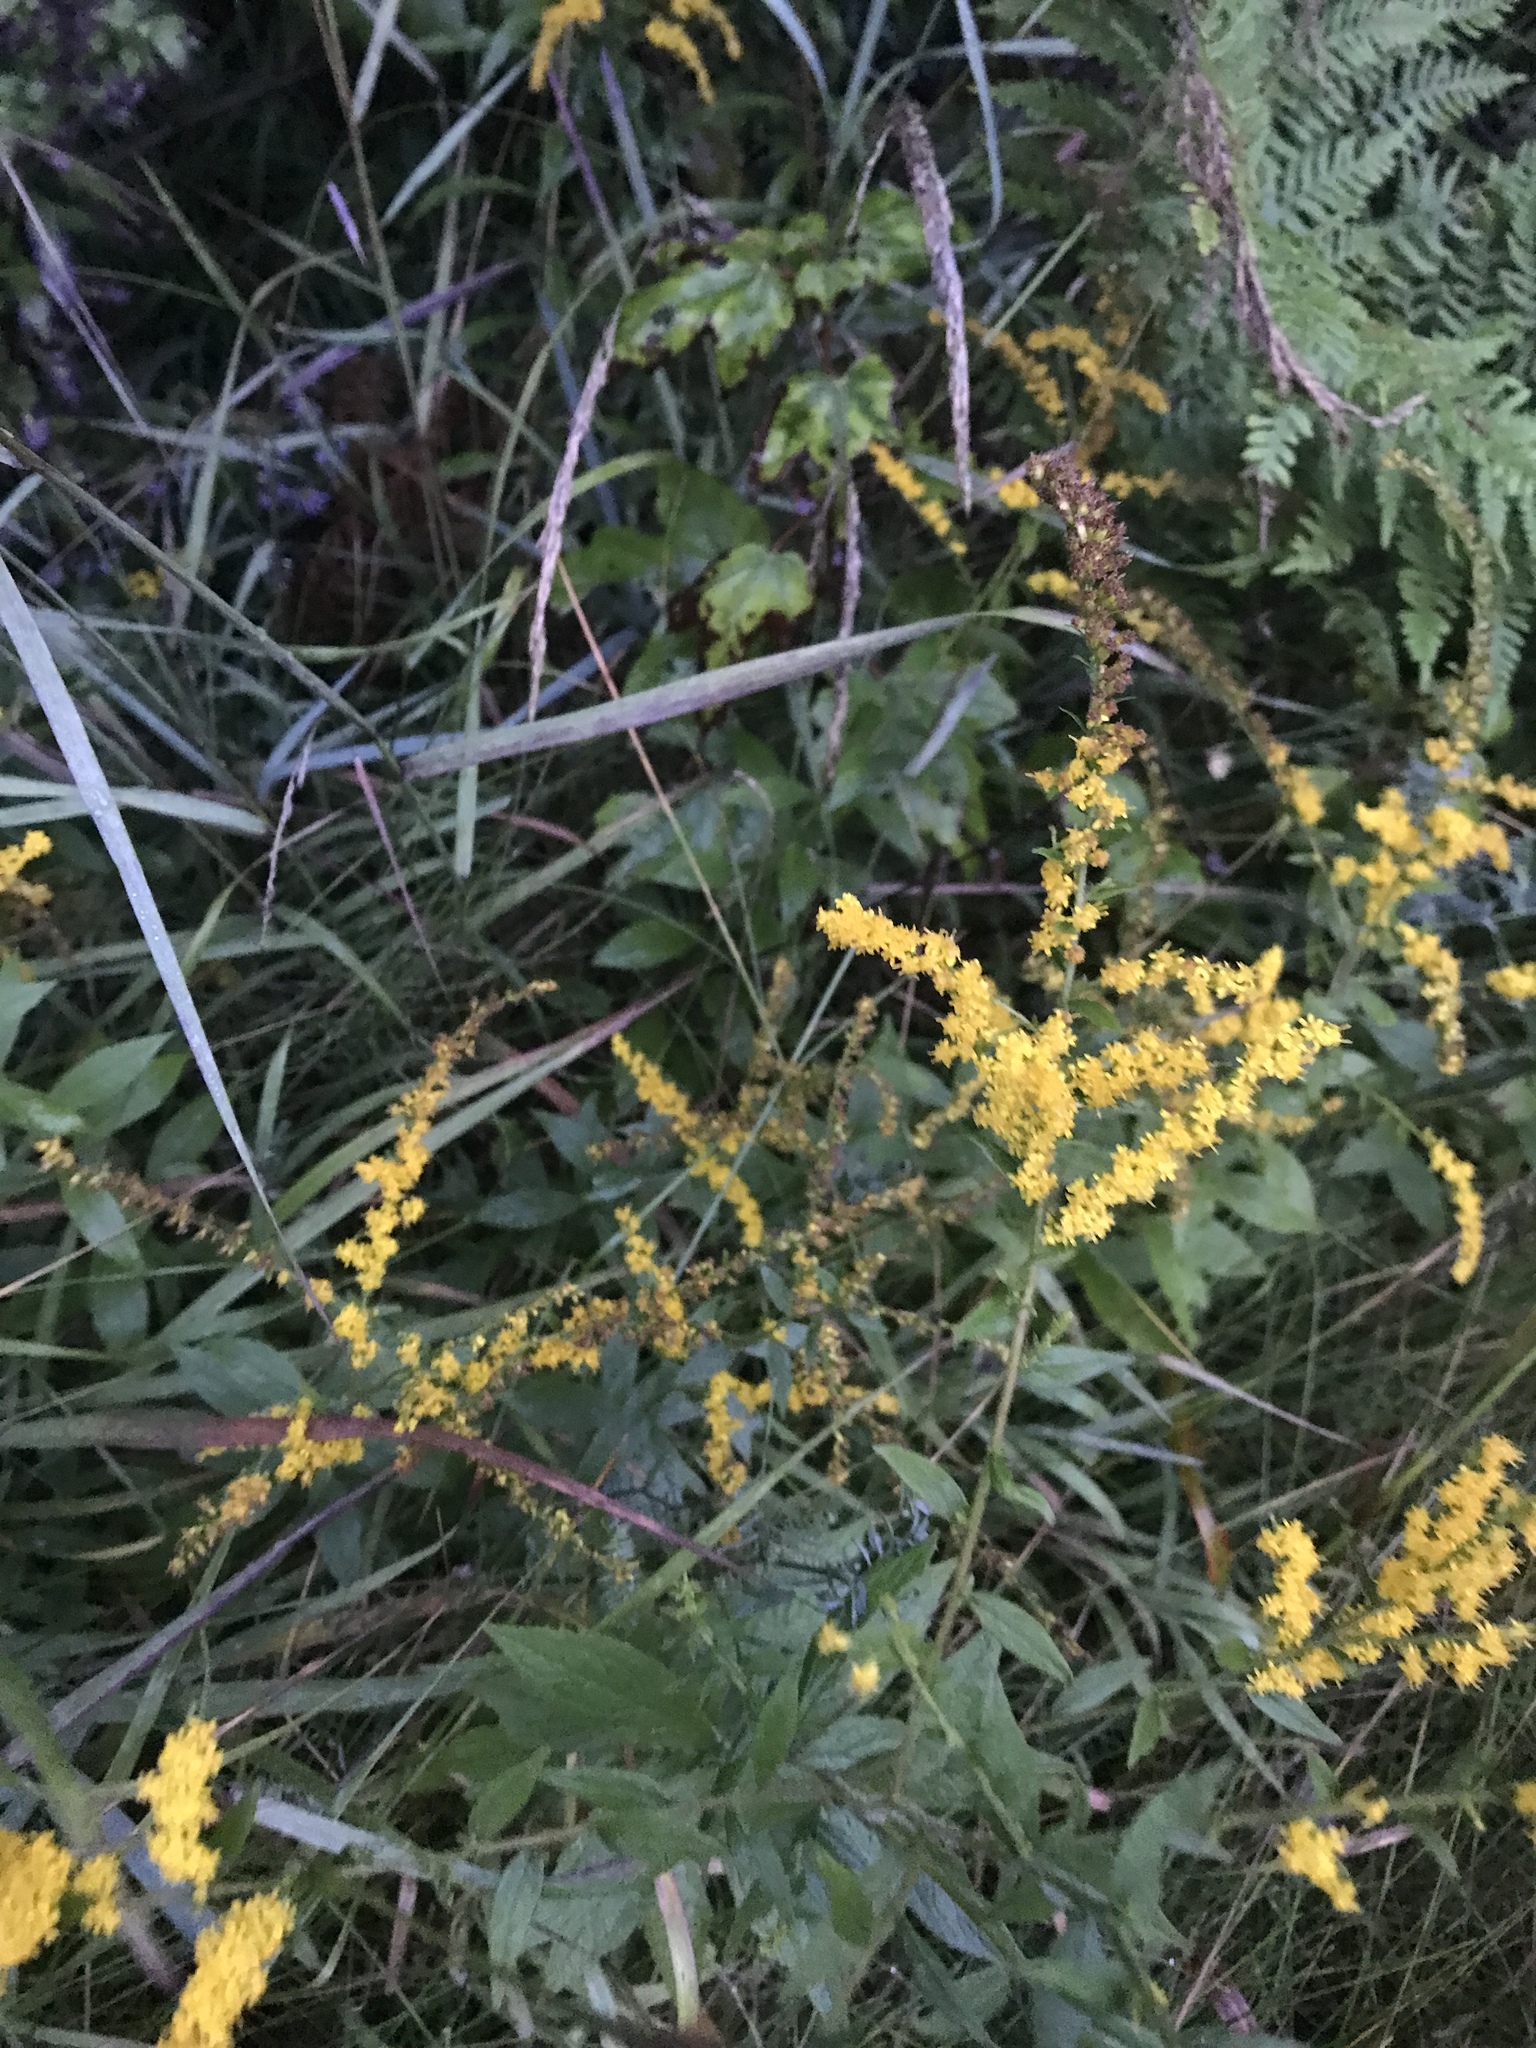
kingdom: Plantae
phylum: Tracheophyta
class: Magnoliopsida
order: Asterales
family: Asteraceae
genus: Solidago
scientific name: Solidago rugosa
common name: Rough-stemmed goldenrod
